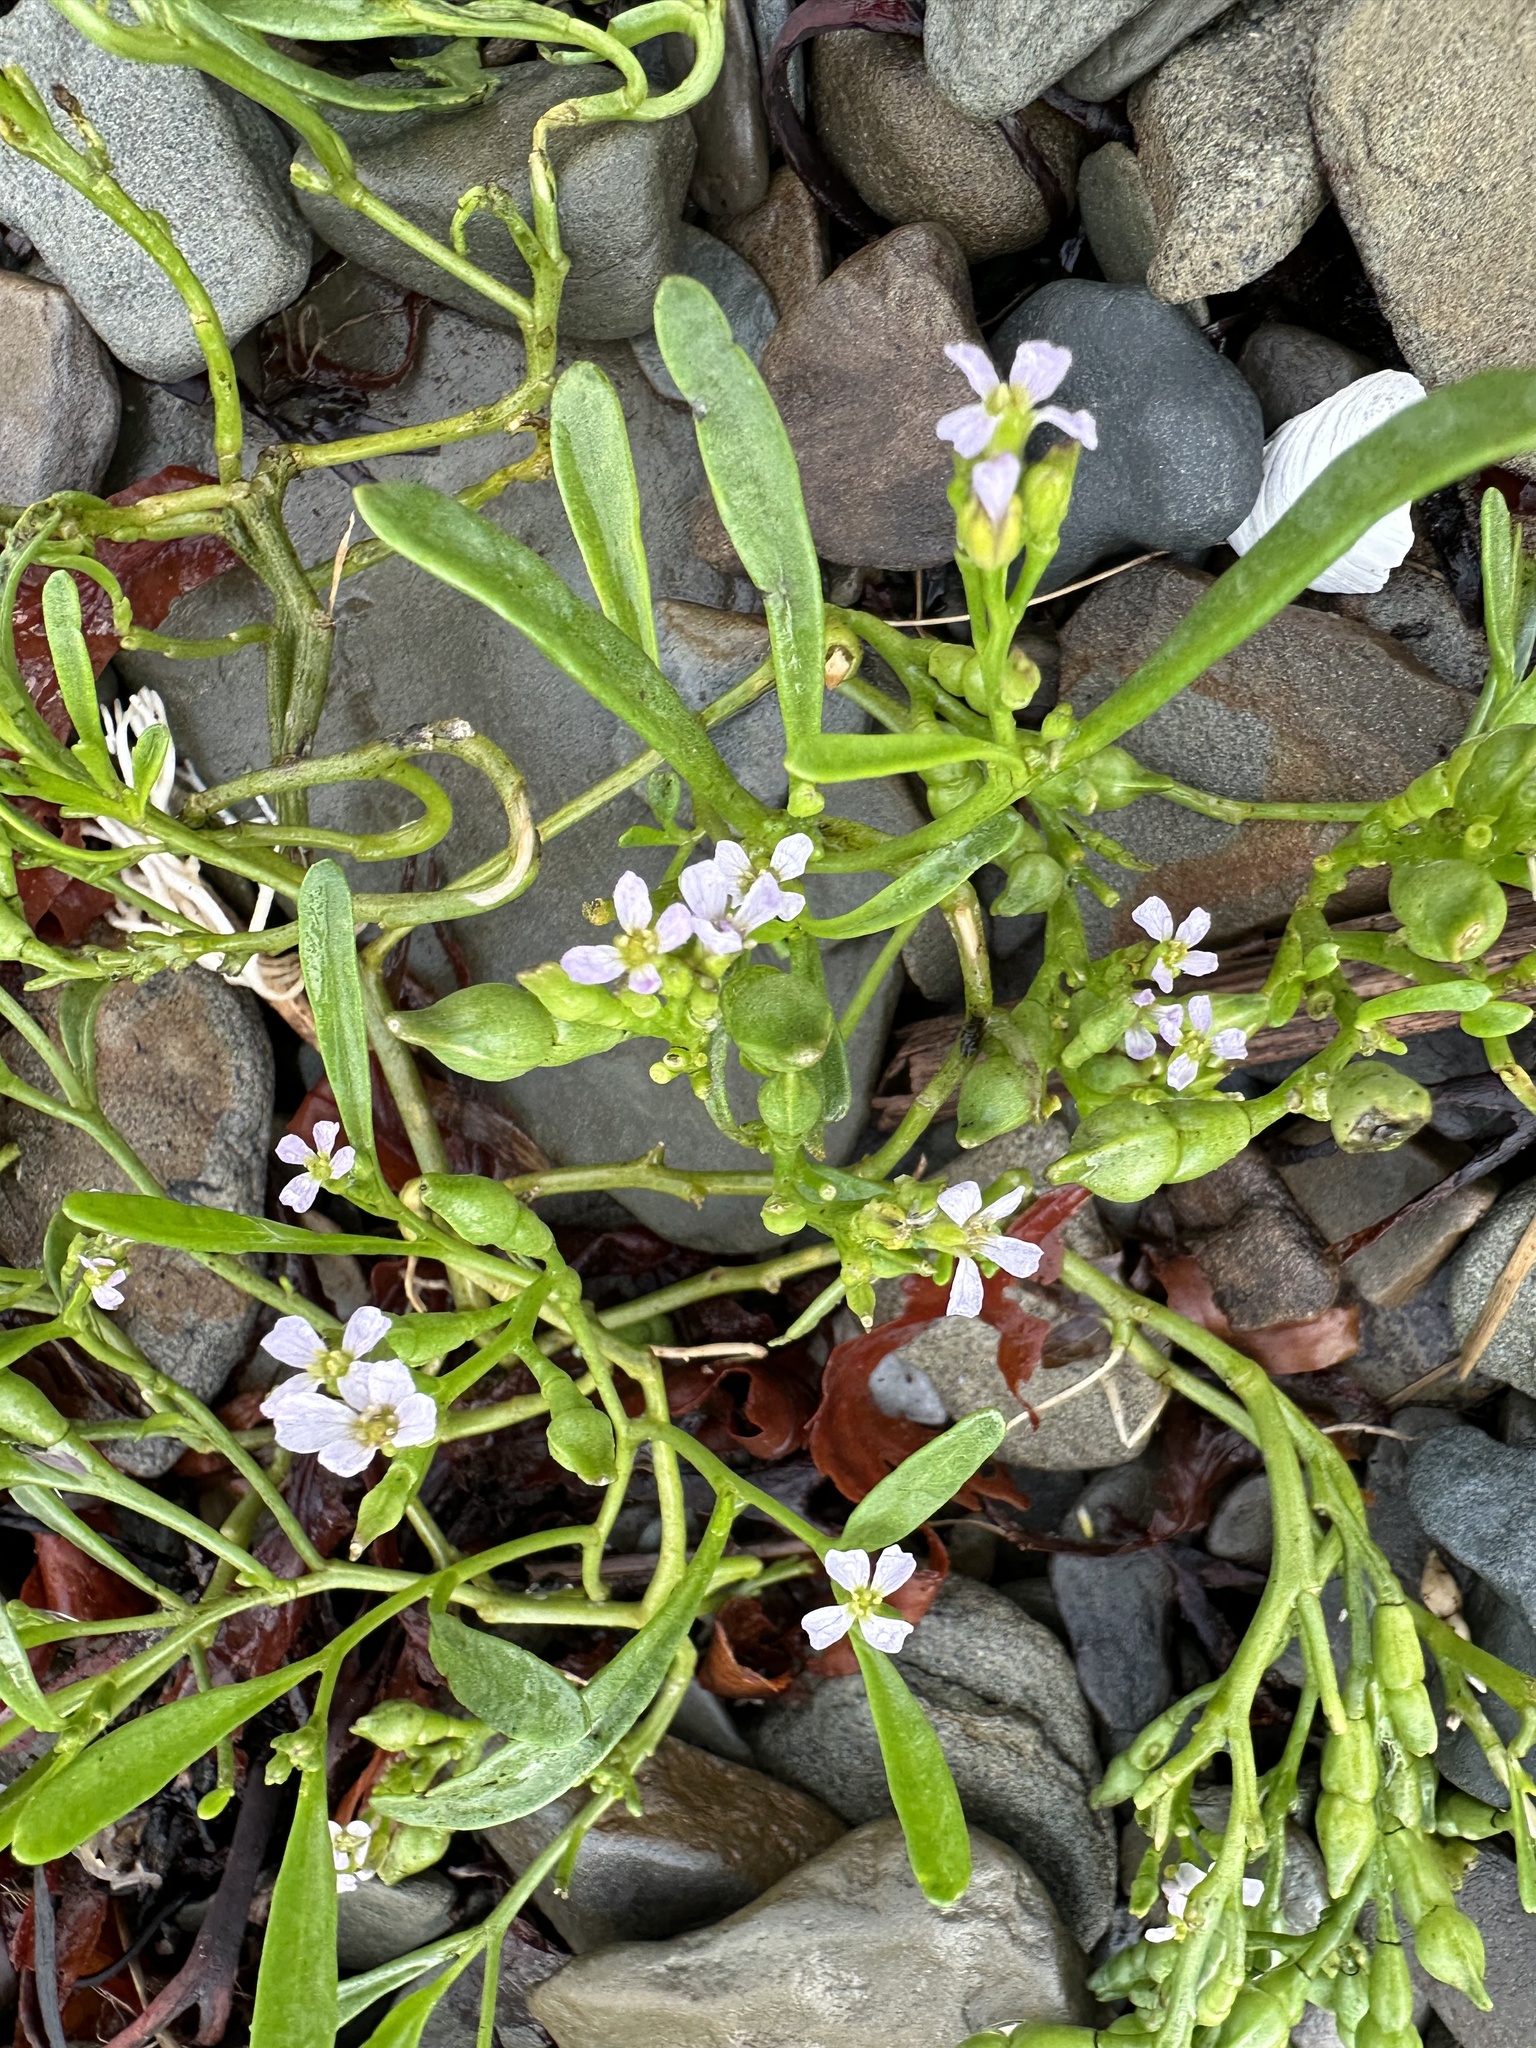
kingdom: Plantae
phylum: Tracheophyta
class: Magnoliopsida
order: Brassicales
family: Brassicaceae
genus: Cakile
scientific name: Cakile edentula
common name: American sea rocket
